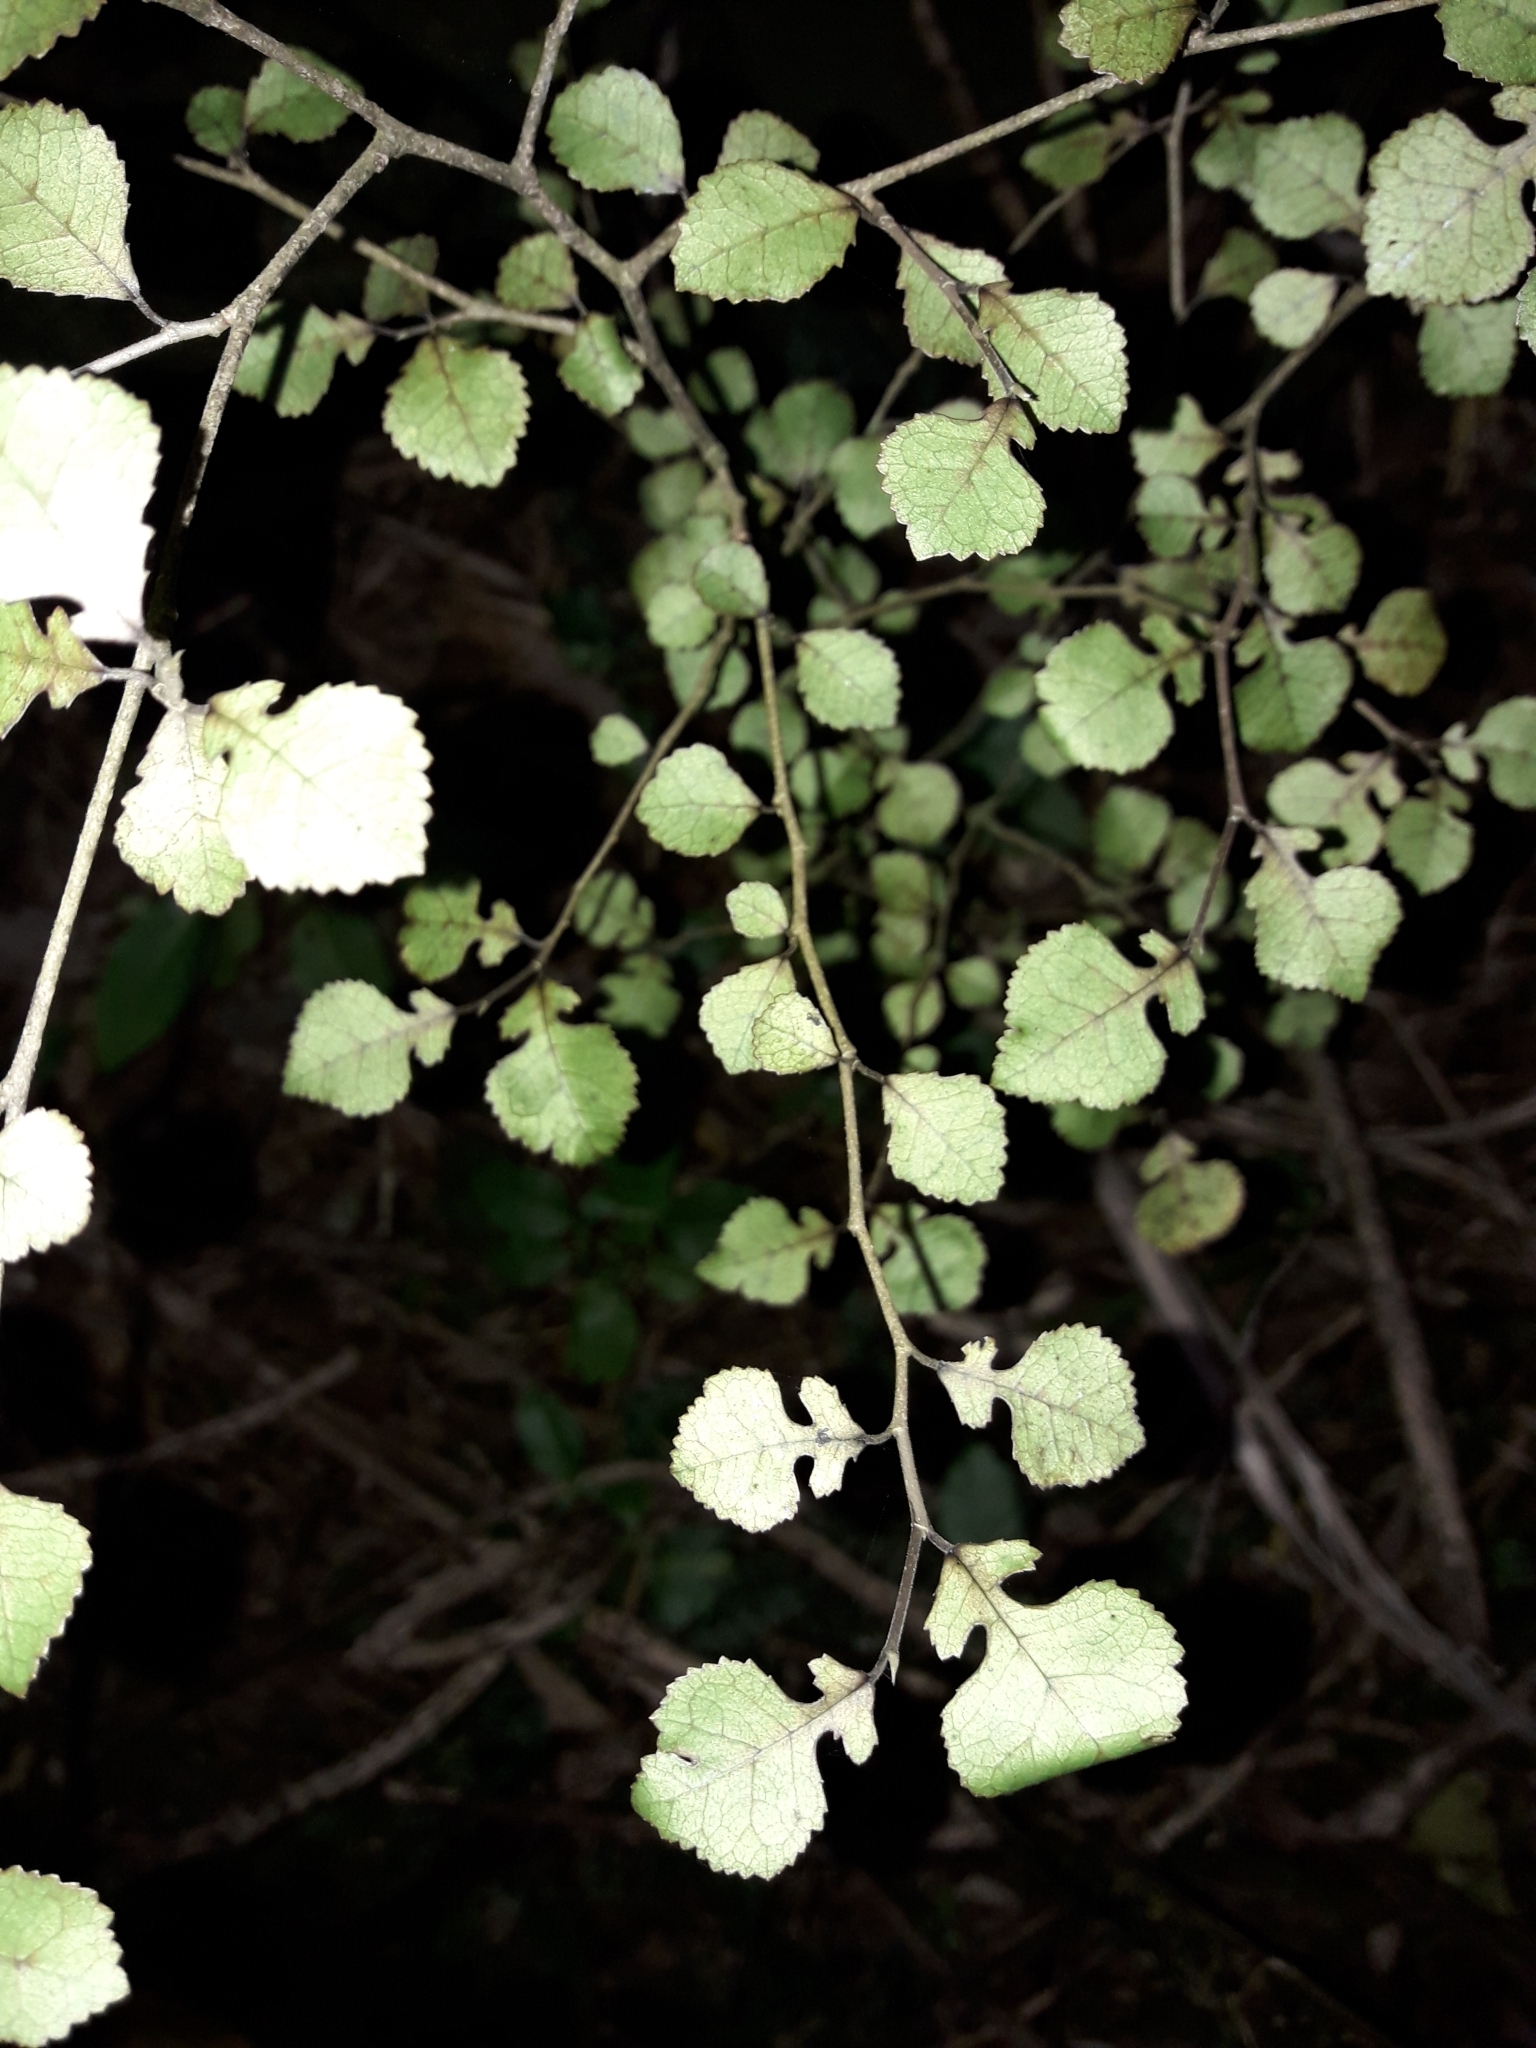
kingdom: Plantae
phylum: Tracheophyta
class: Magnoliopsida
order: Rosales
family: Moraceae
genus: Paratrophis
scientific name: Paratrophis microphylla
